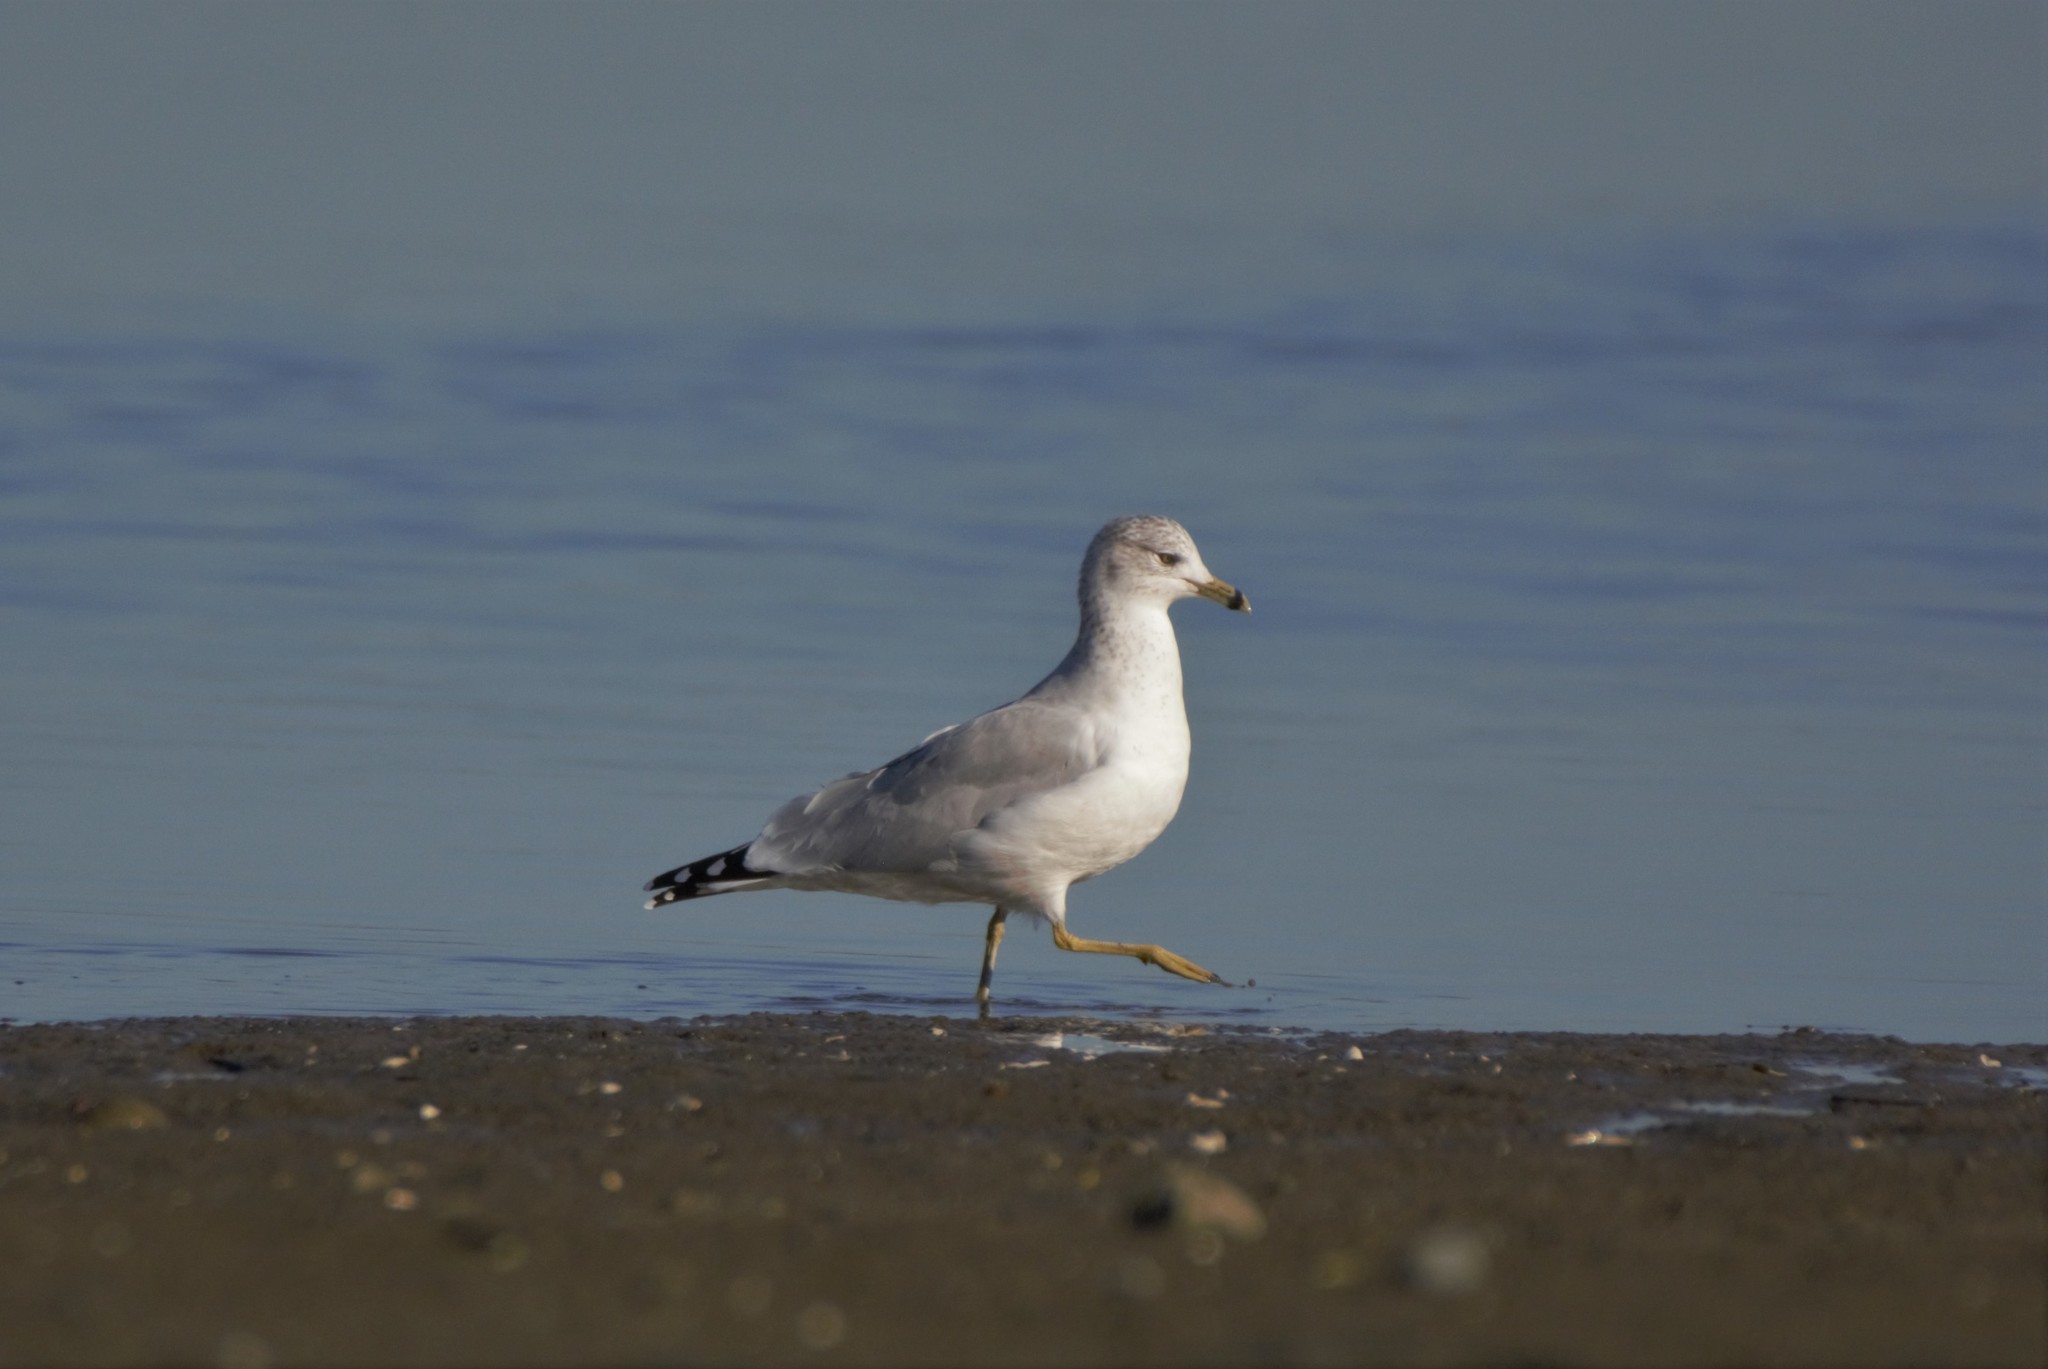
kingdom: Animalia
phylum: Chordata
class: Aves
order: Charadriiformes
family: Laridae
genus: Larus
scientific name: Larus delawarensis
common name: Ring-billed gull
